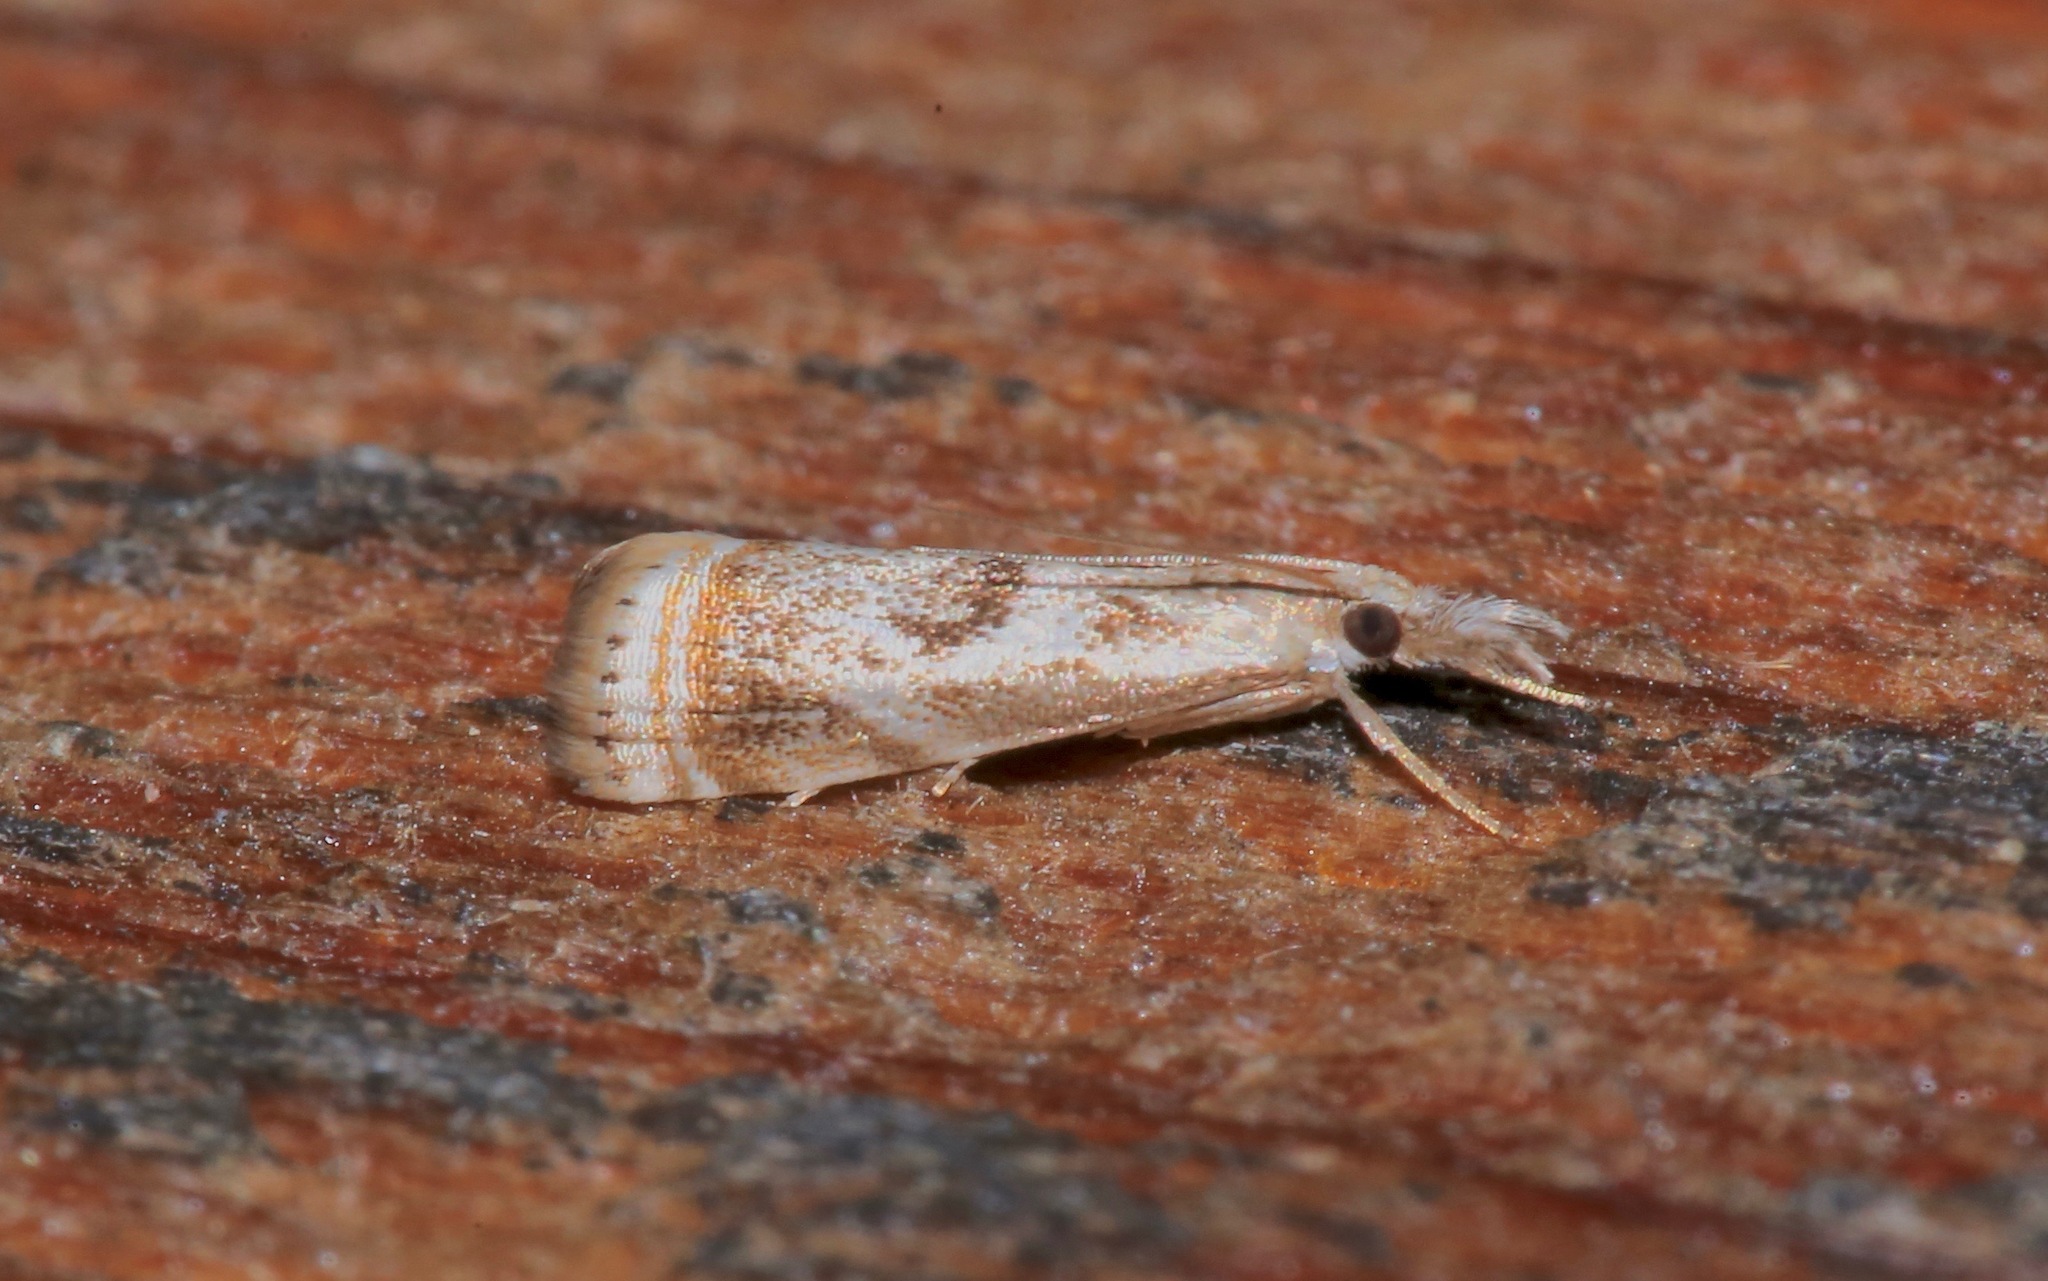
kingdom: Animalia
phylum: Arthropoda
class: Insecta
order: Lepidoptera
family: Crambidae
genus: Microcrambus
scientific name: Microcrambus elegans
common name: Elegant grass-veneer
